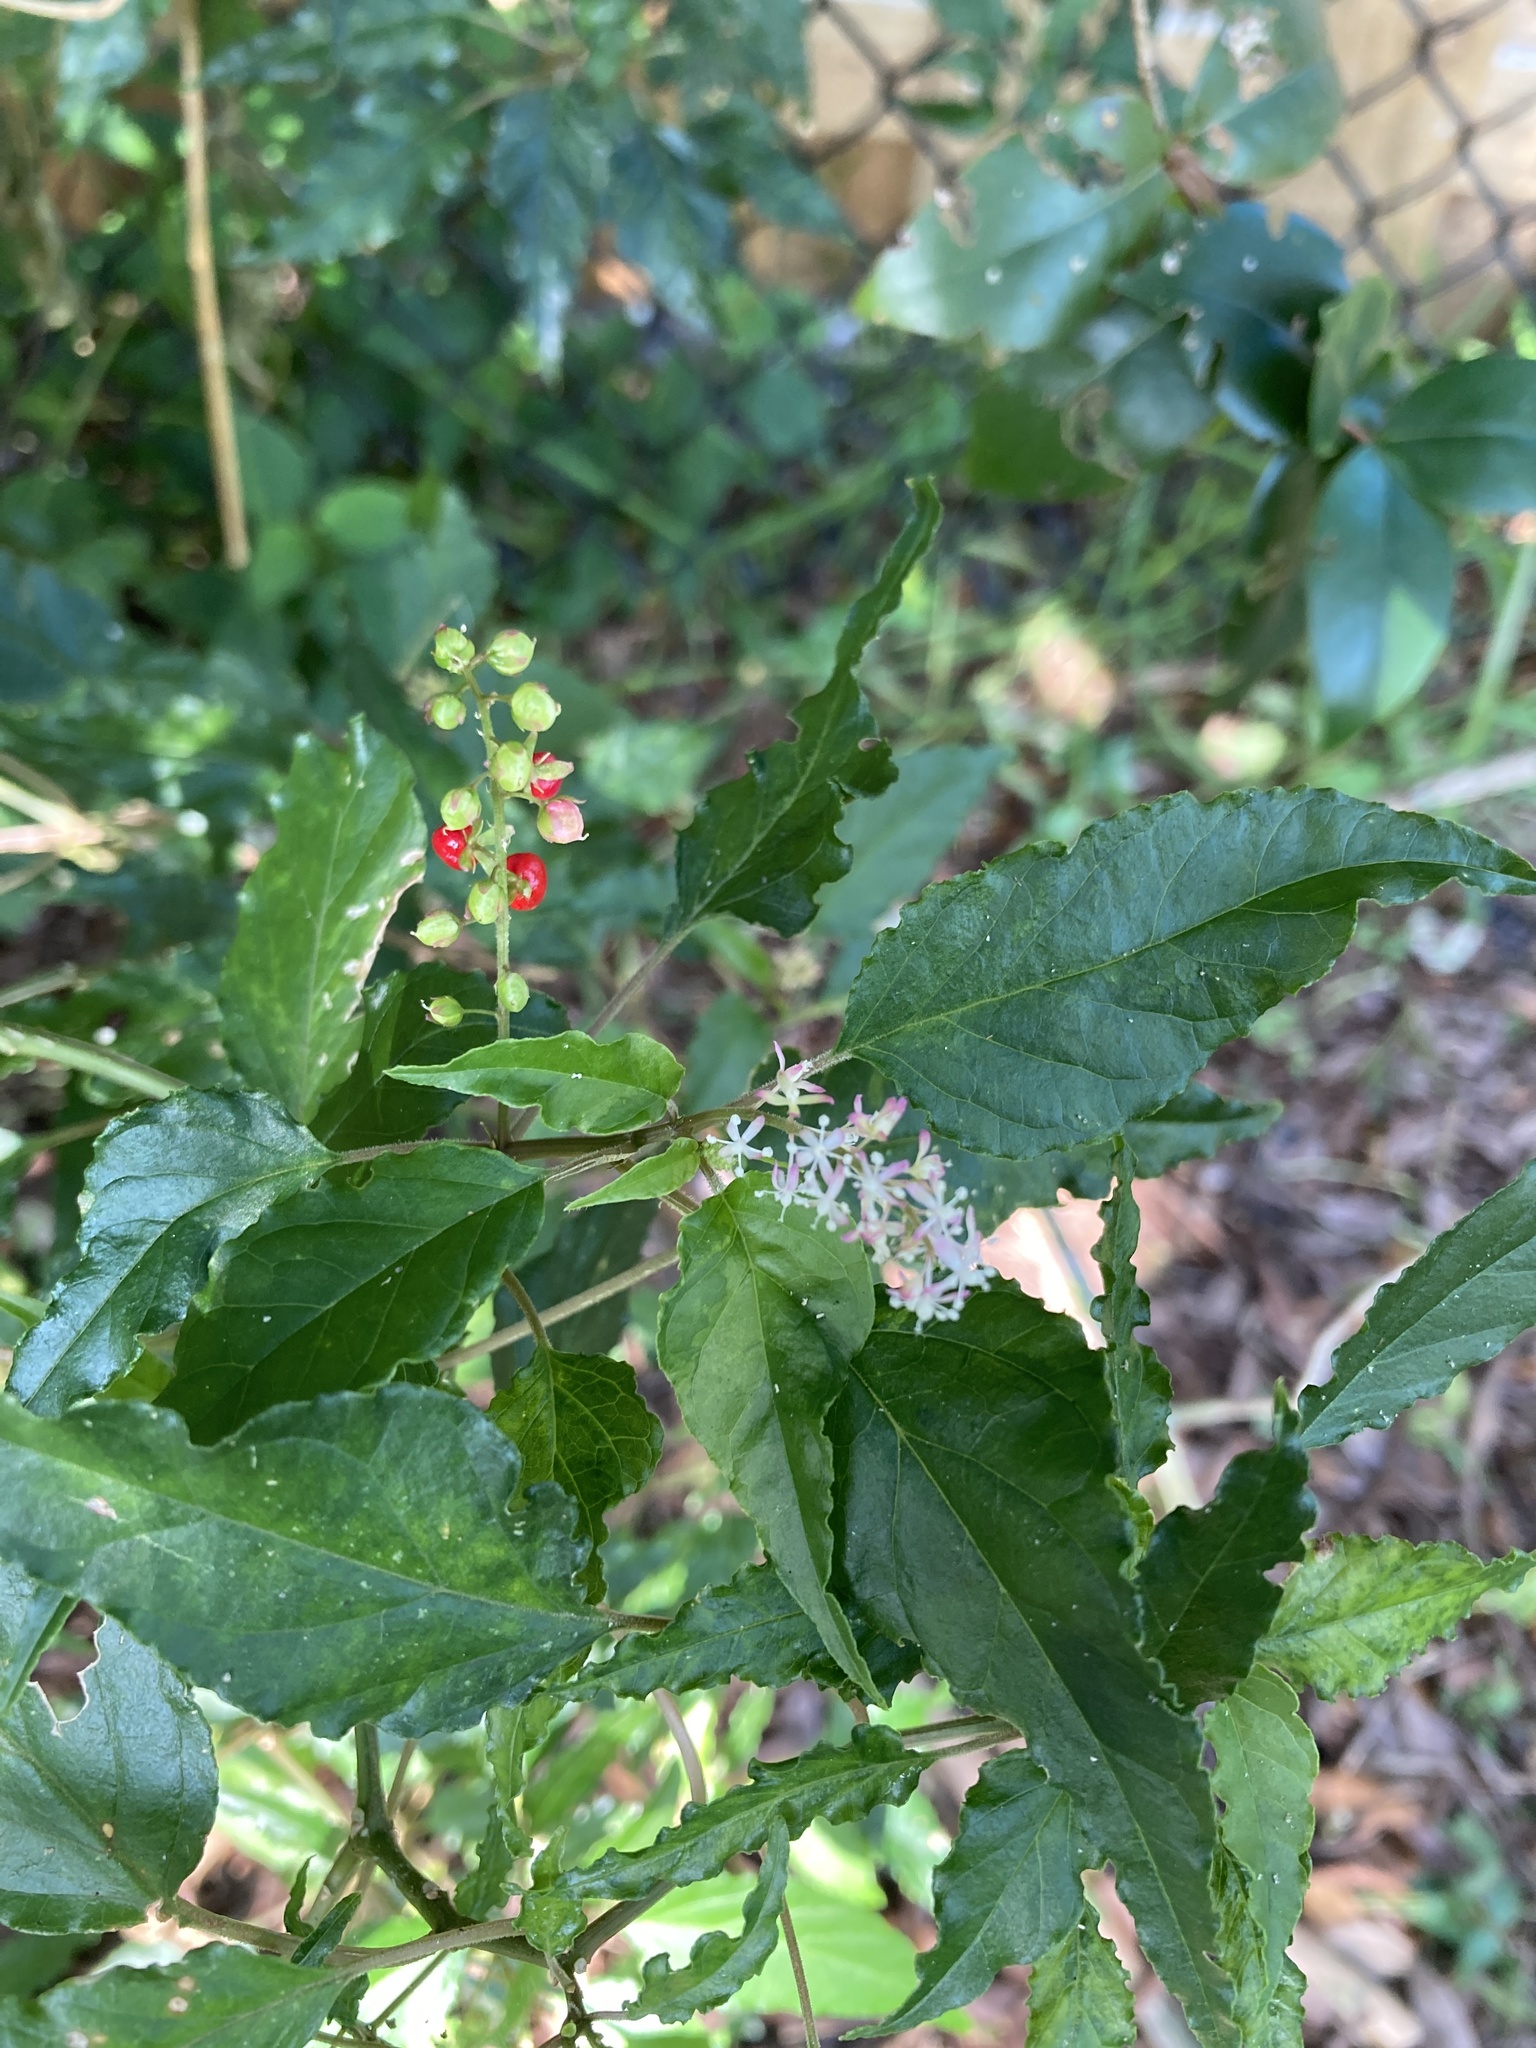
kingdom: Plantae
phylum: Tracheophyta
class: Magnoliopsida
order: Caryophyllales
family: Phytolaccaceae
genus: Rivina
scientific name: Rivina humilis
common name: Rougeplant
